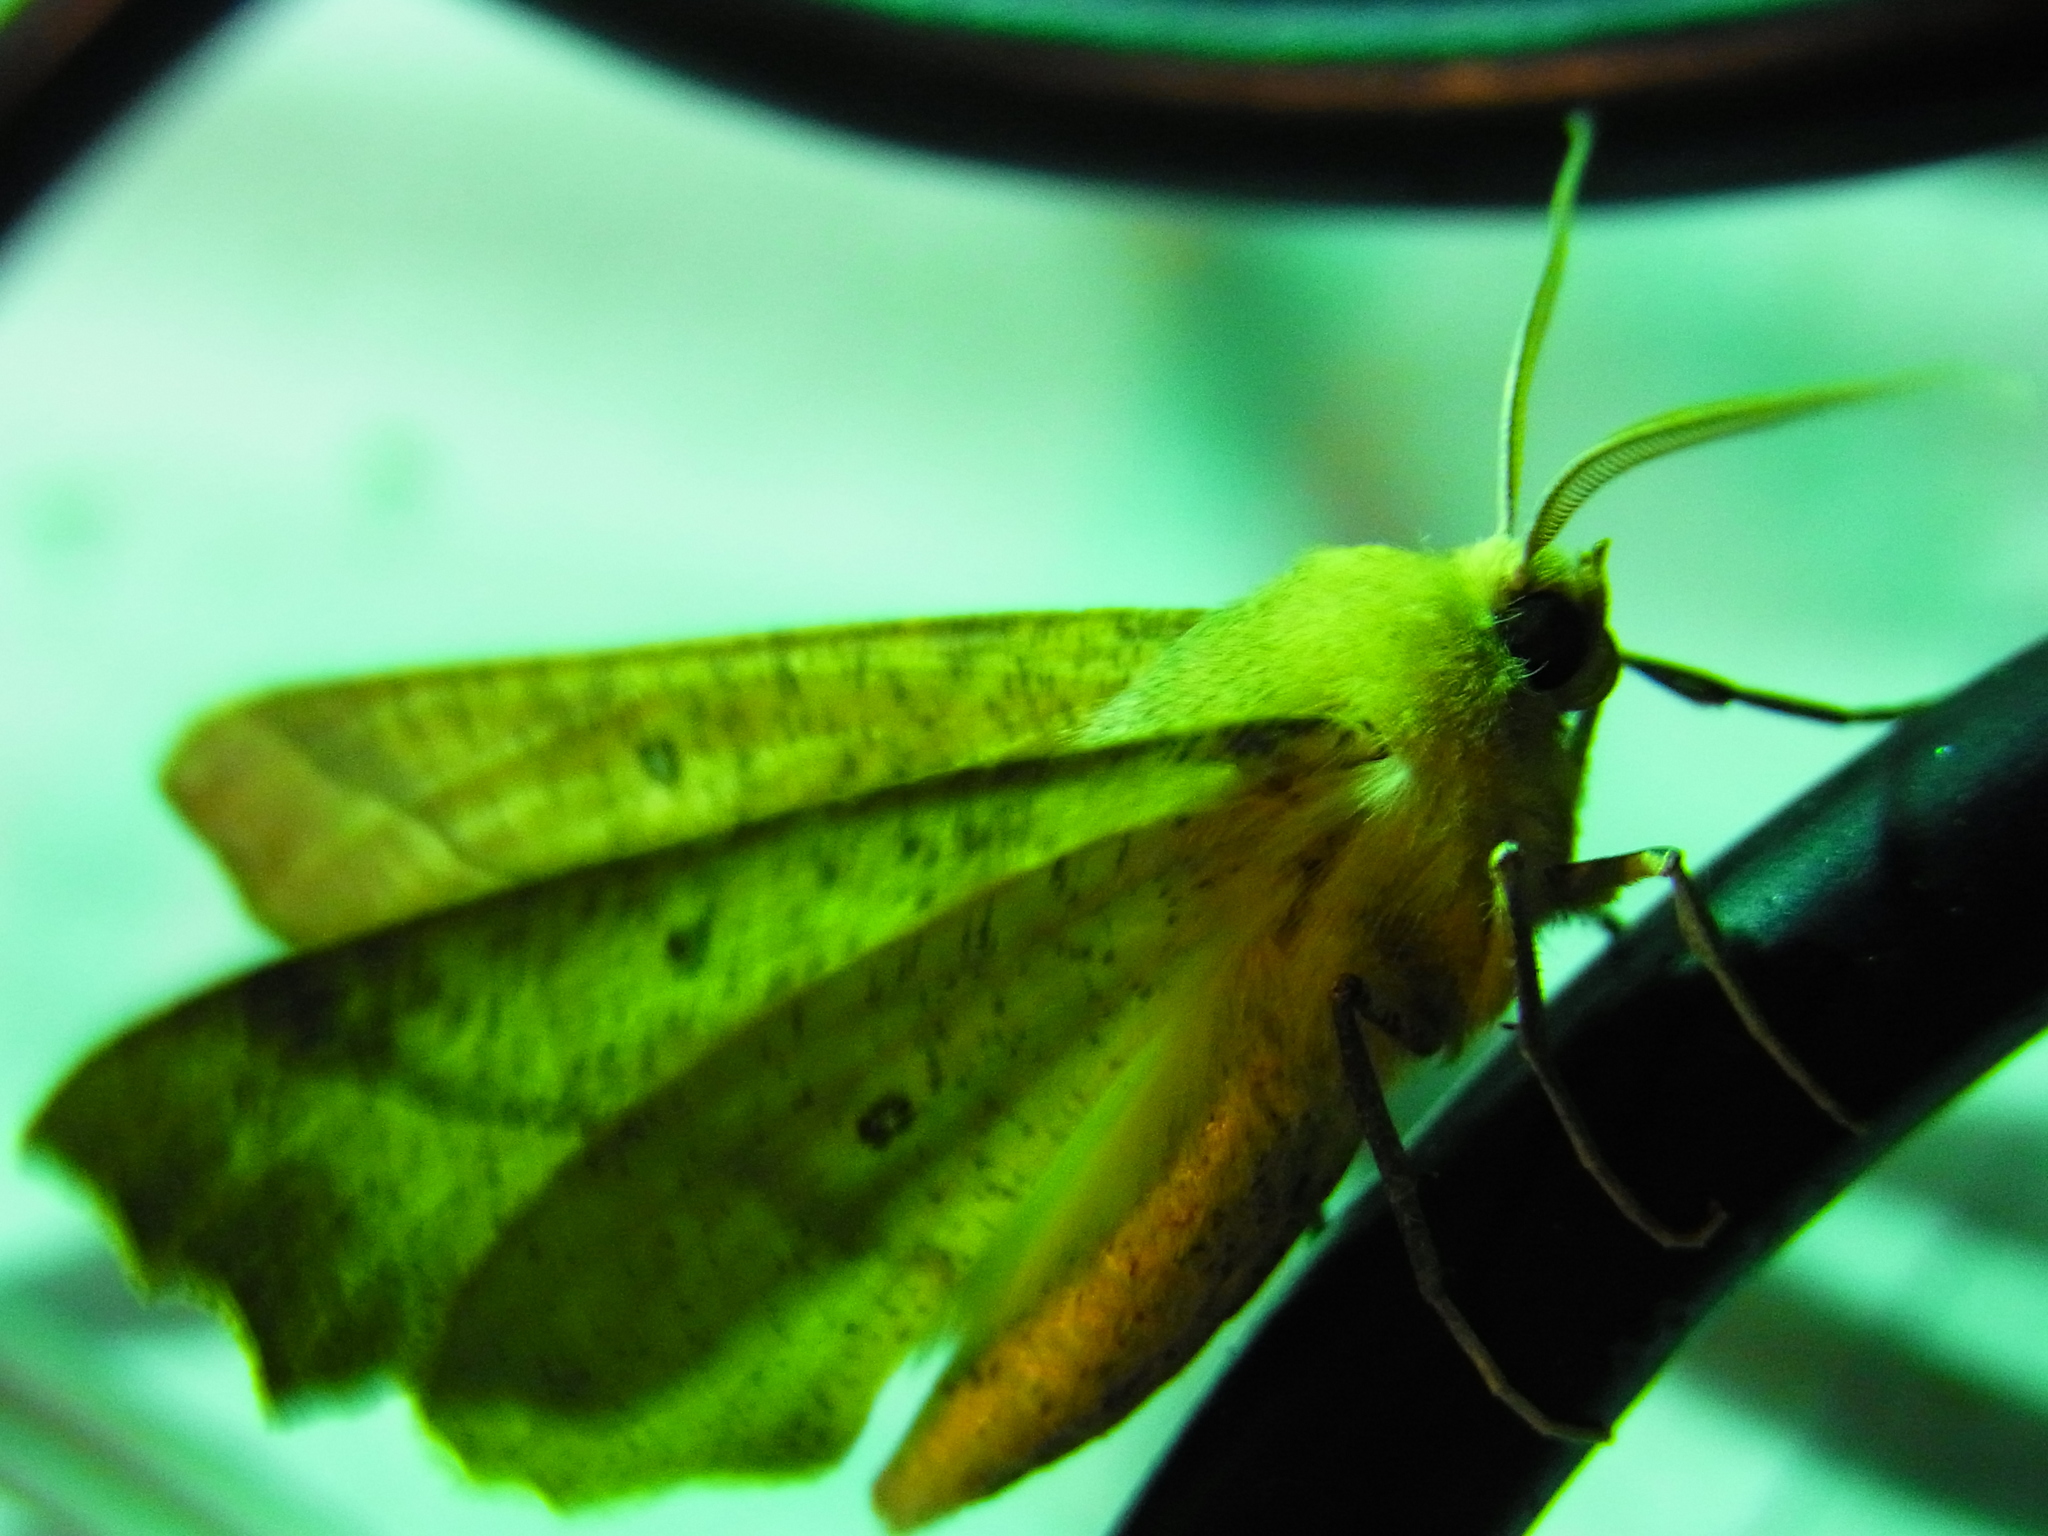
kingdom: Animalia
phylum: Arthropoda
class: Insecta
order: Lepidoptera
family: Geometridae
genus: Odontopera
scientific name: Odontopera arida
